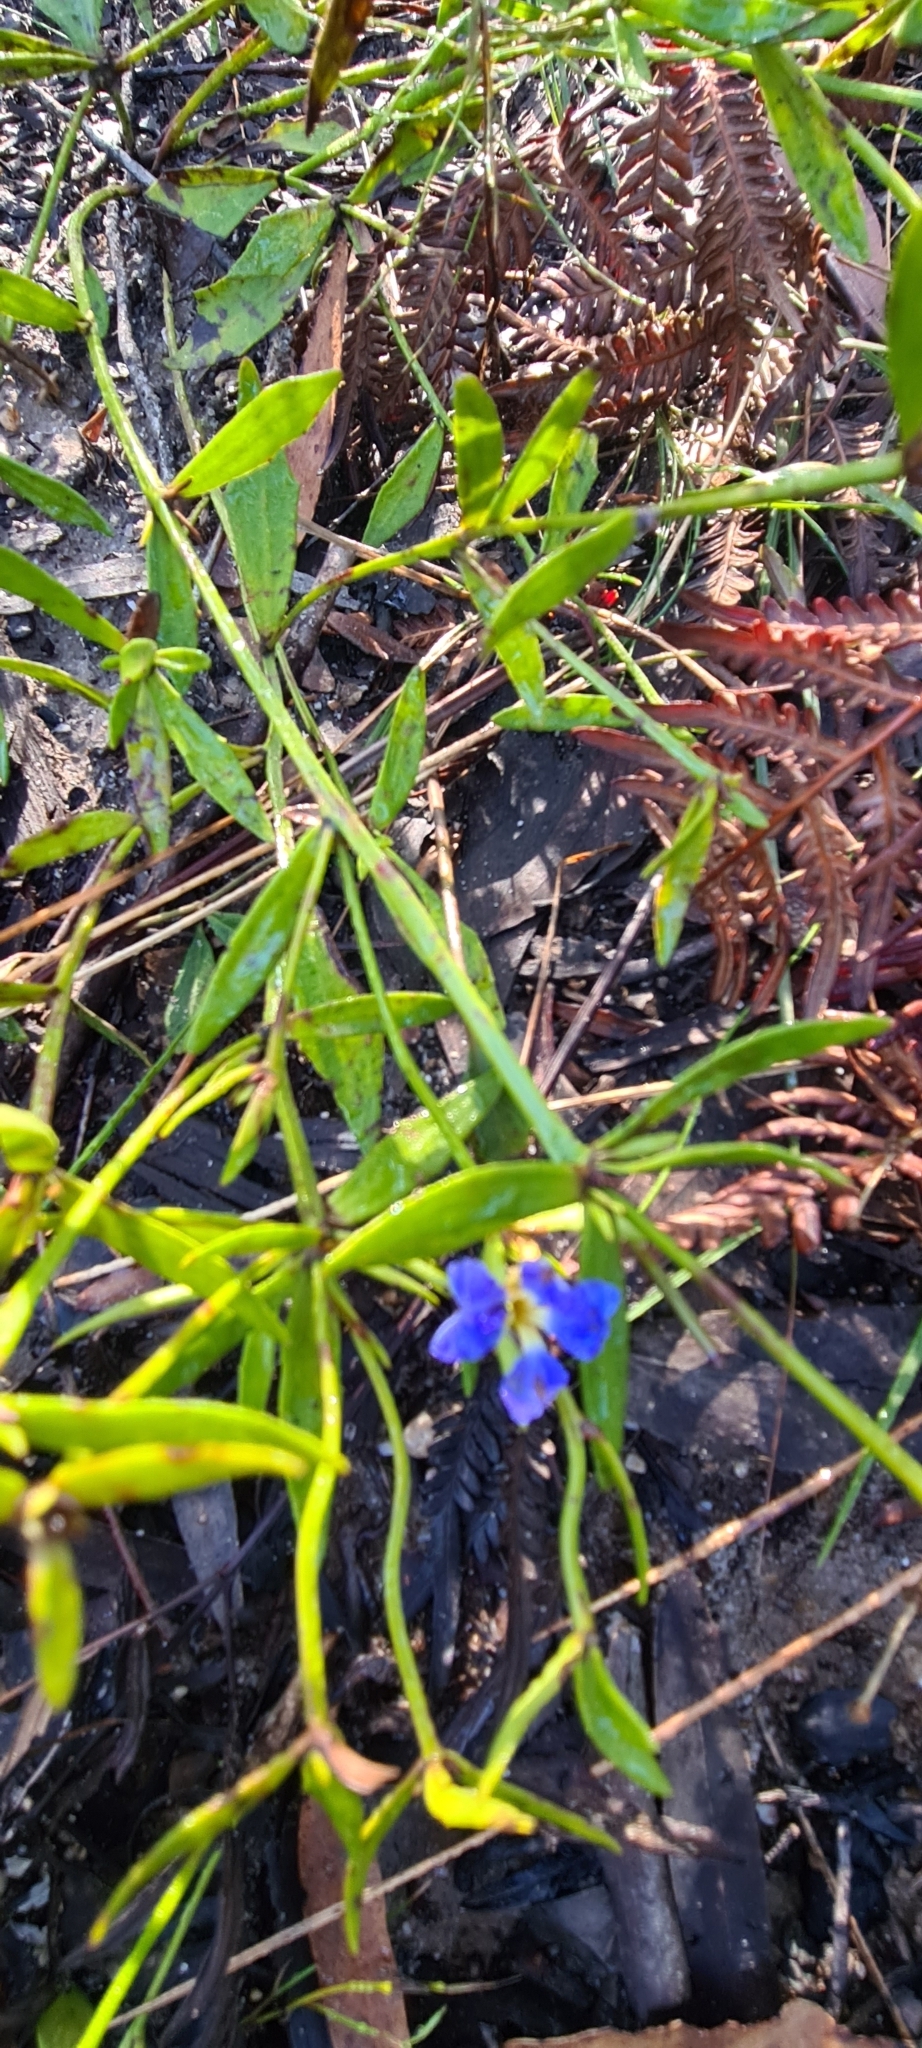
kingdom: Plantae
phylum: Tracheophyta
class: Magnoliopsida
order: Asterales
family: Goodeniaceae
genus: Dampiera
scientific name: Dampiera stricta
